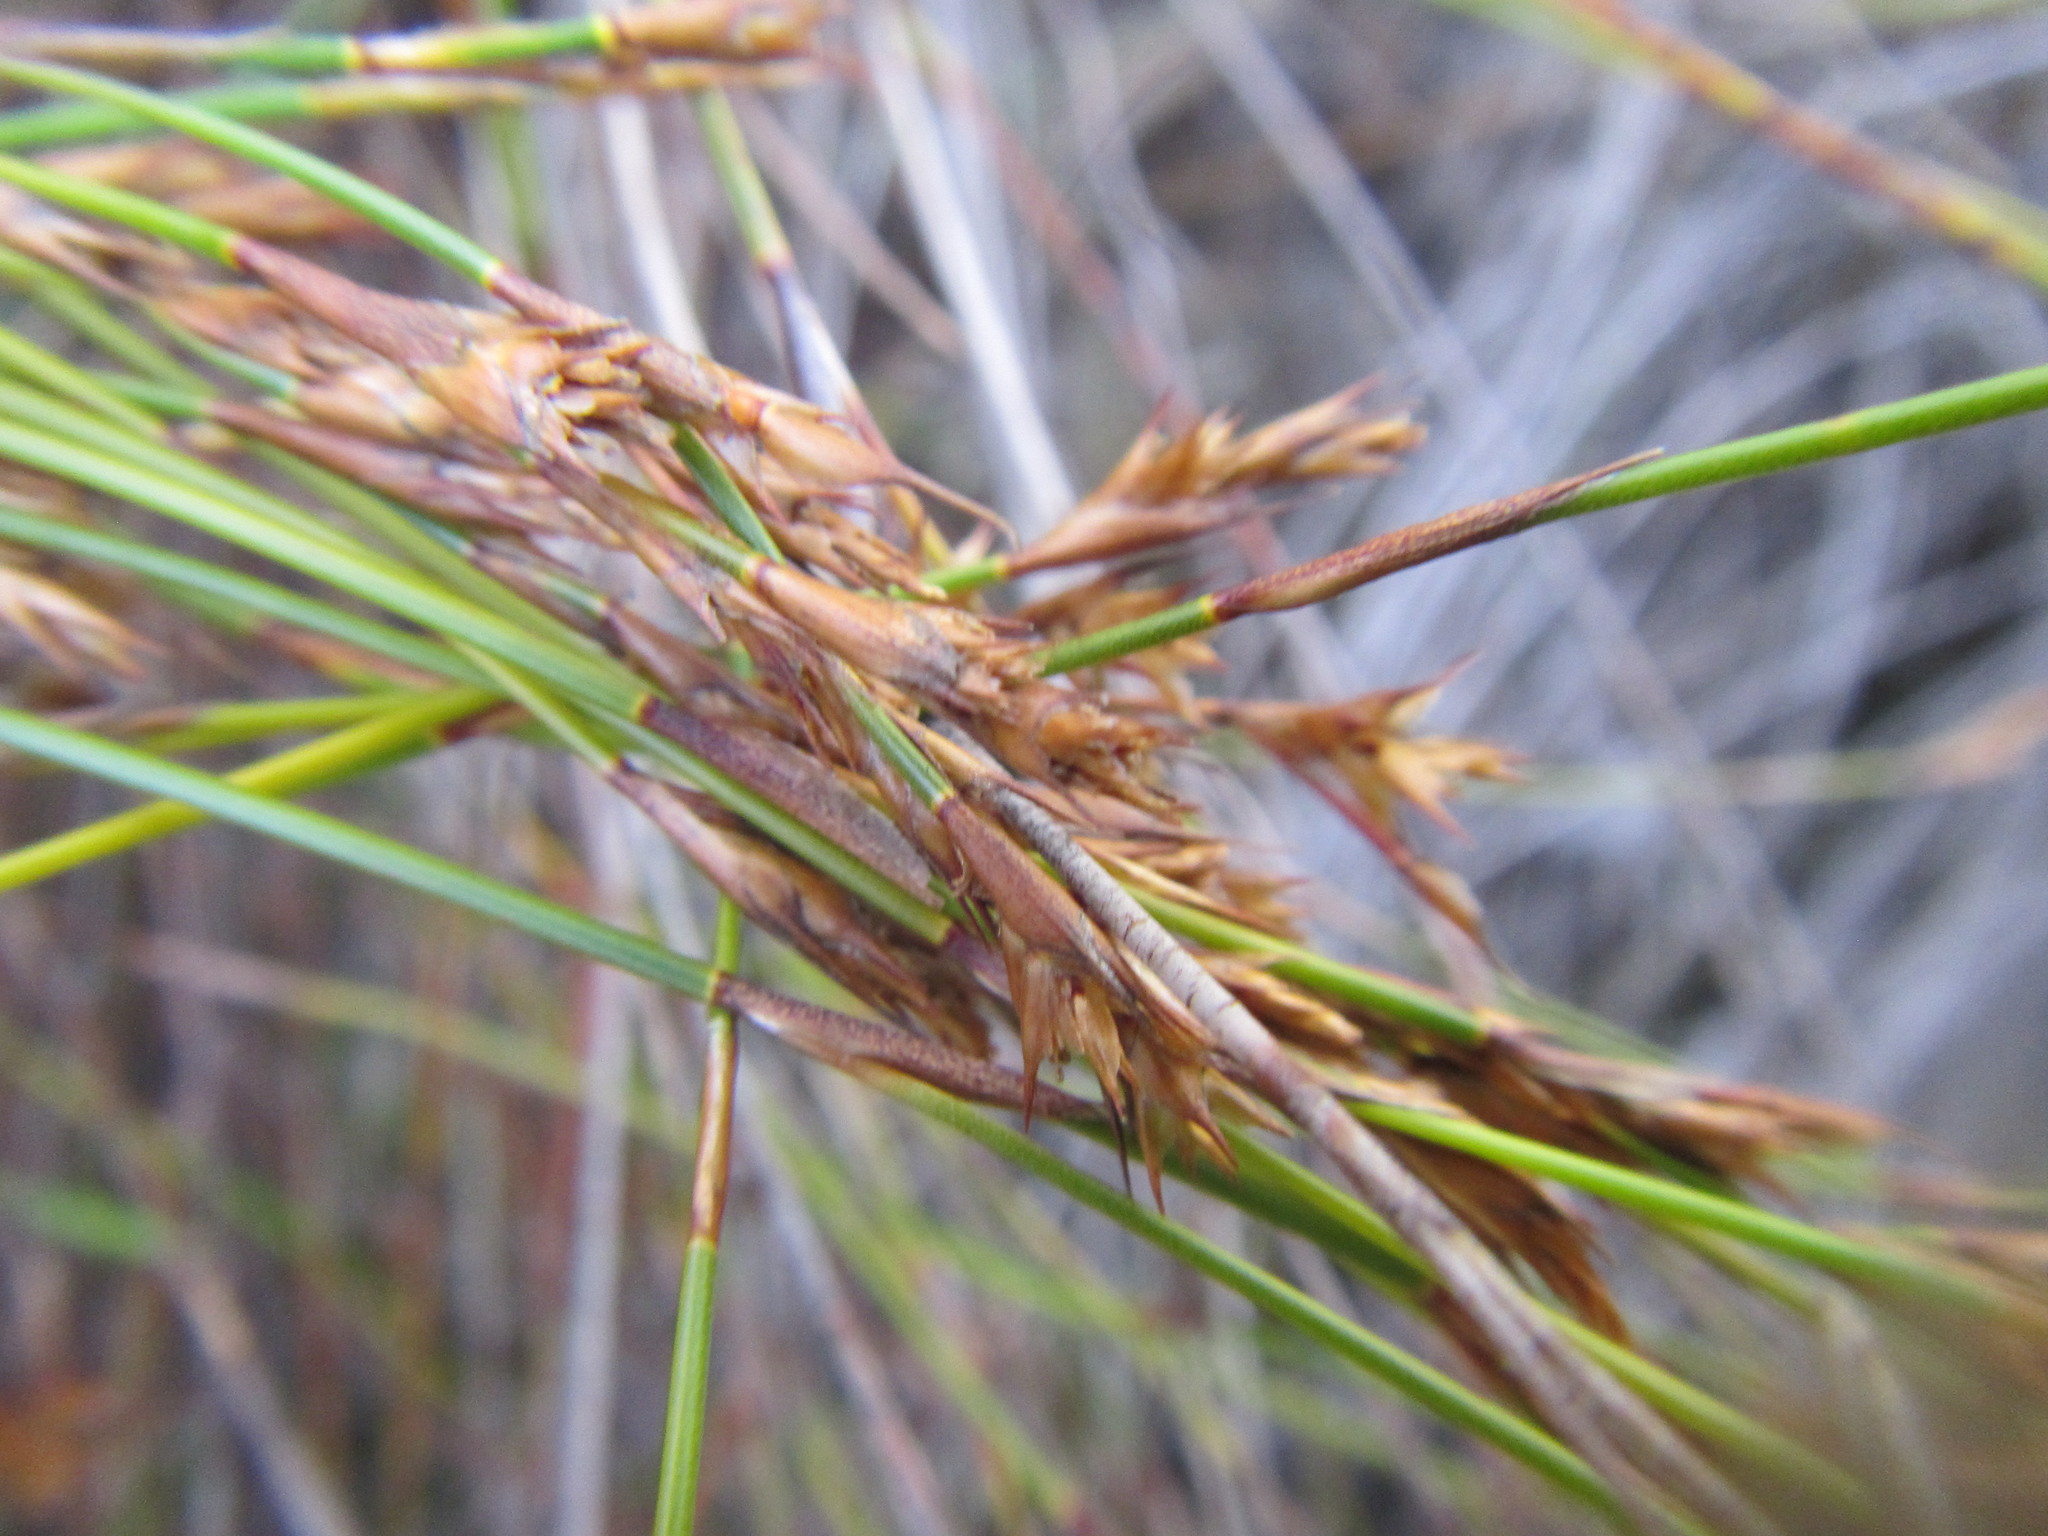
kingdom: Plantae
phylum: Tracheophyta
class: Liliopsida
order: Poales
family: Restionaceae
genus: Restio
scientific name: Restio tenuispicatus
